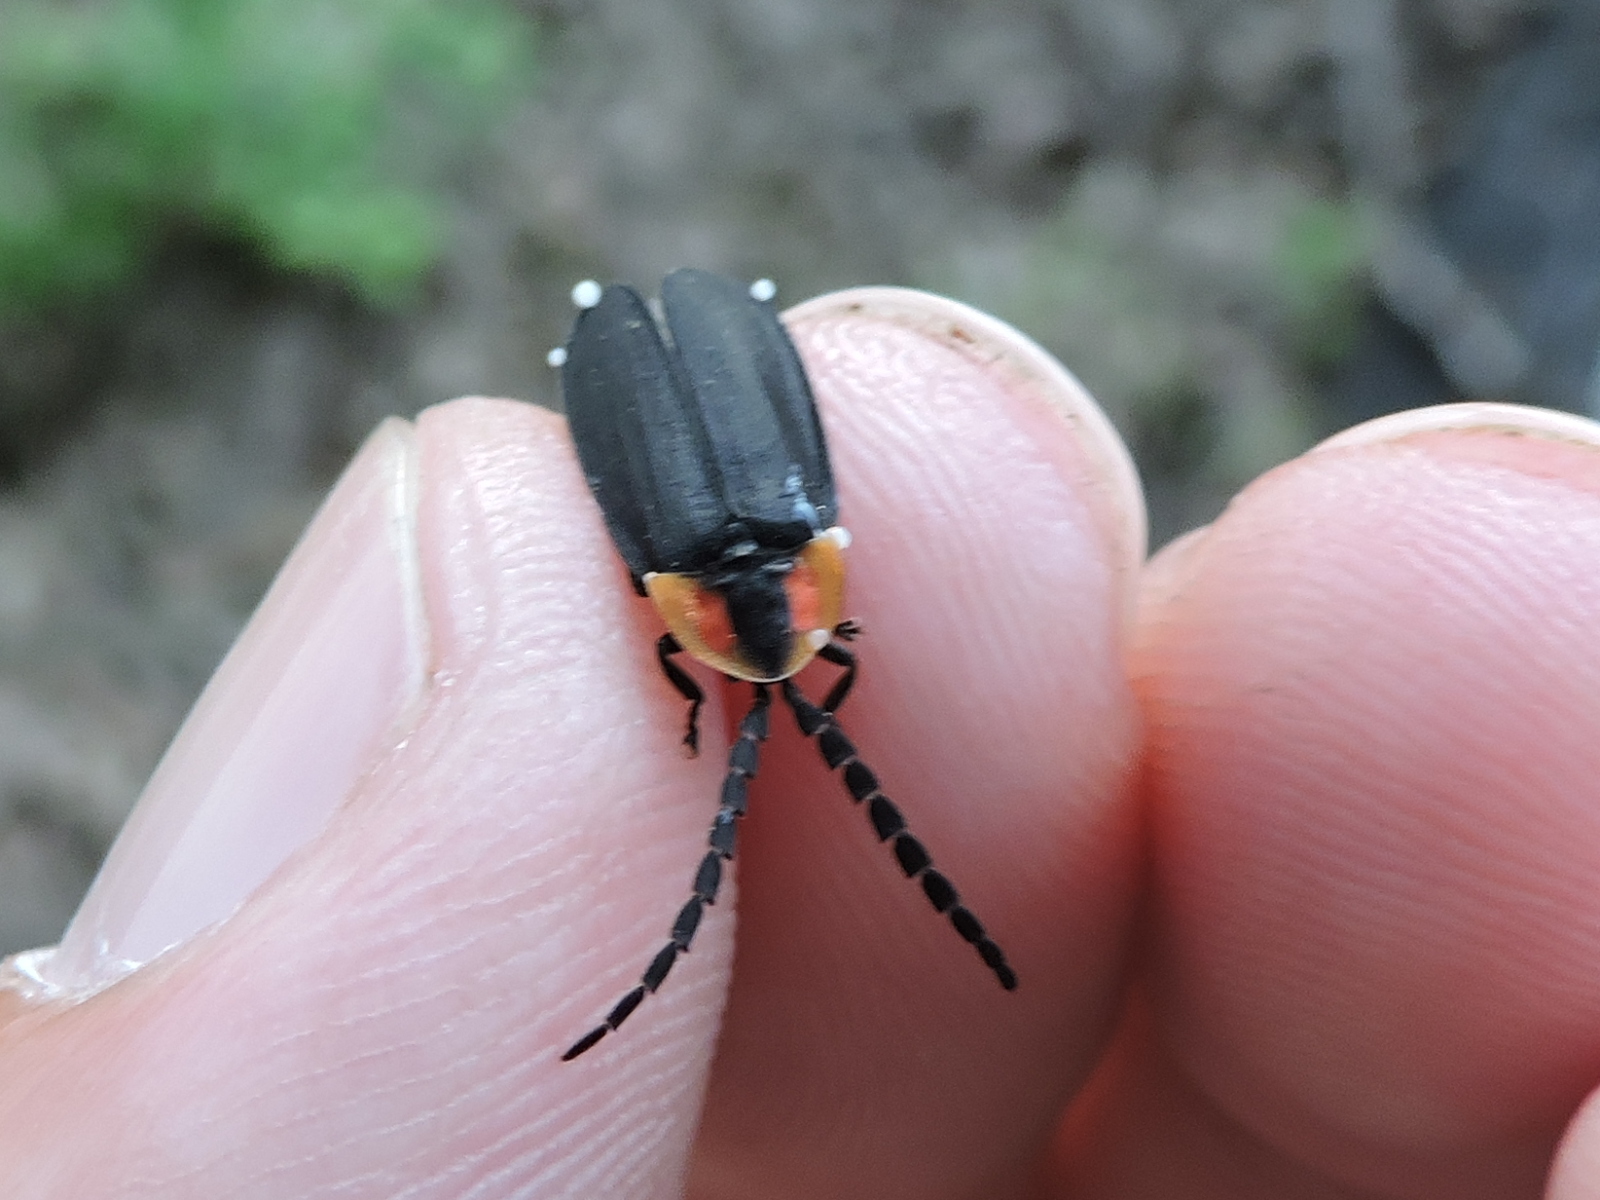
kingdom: Animalia
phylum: Arthropoda
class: Insecta
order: Coleoptera
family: Lampyridae
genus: Lucidota
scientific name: Lucidota atra
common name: Black firefly
